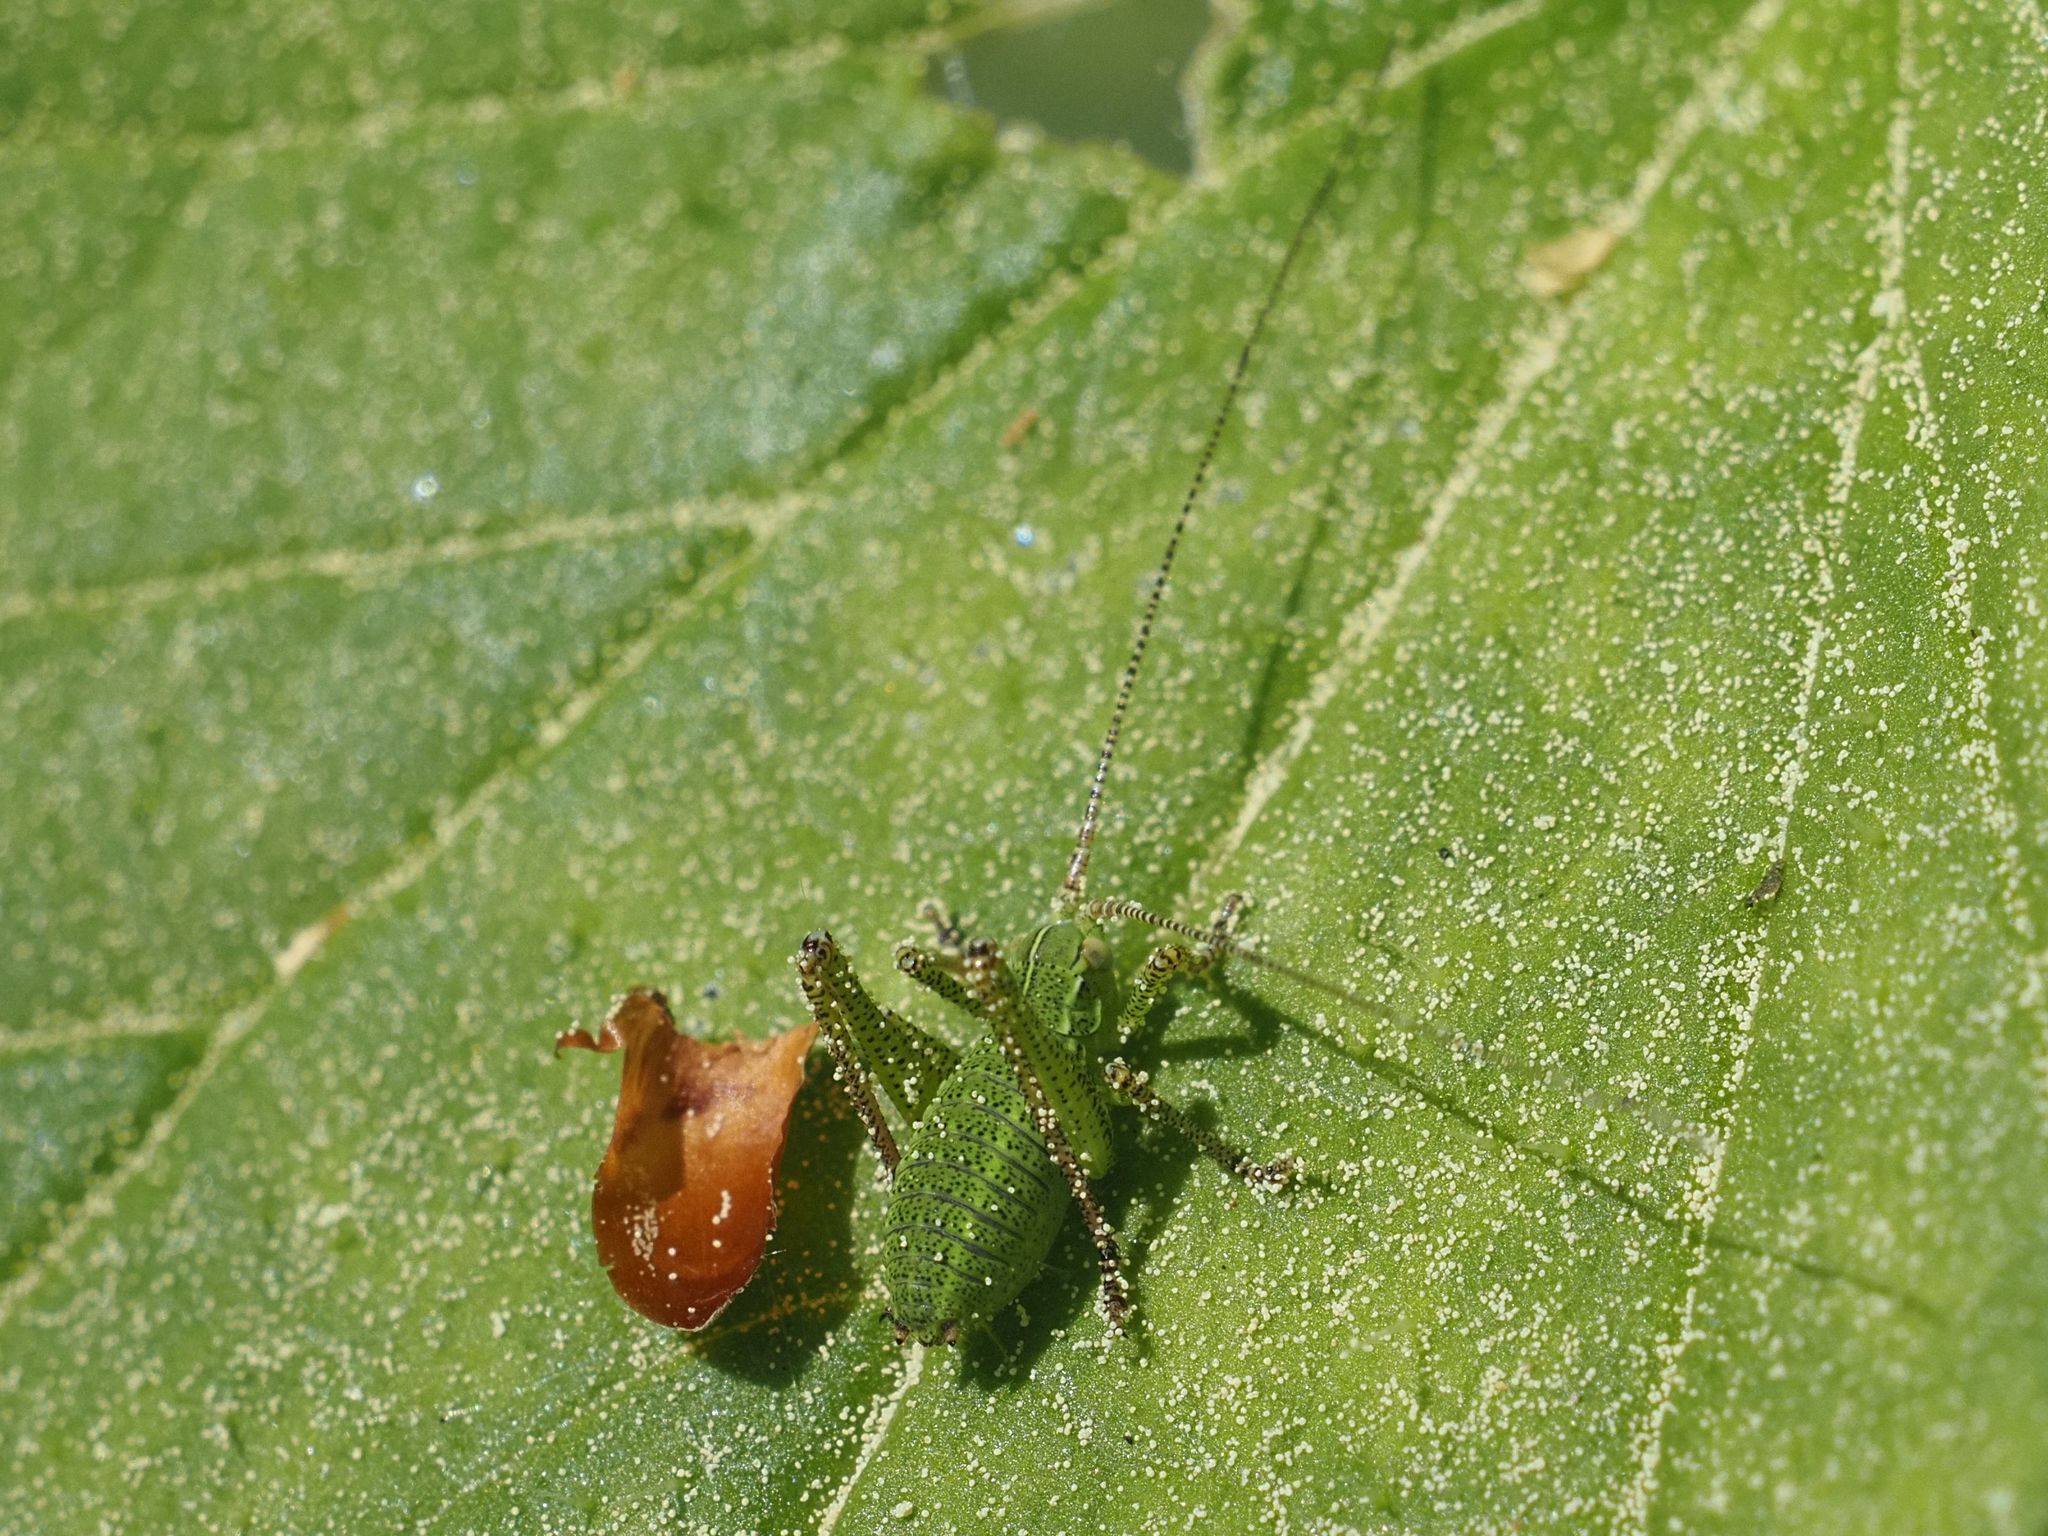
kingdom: Animalia
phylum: Arthropoda
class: Insecta
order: Orthoptera
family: Tettigoniidae
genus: Barbitistes
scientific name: Barbitistes serricauda
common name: Saw-tailed bush-cricket
